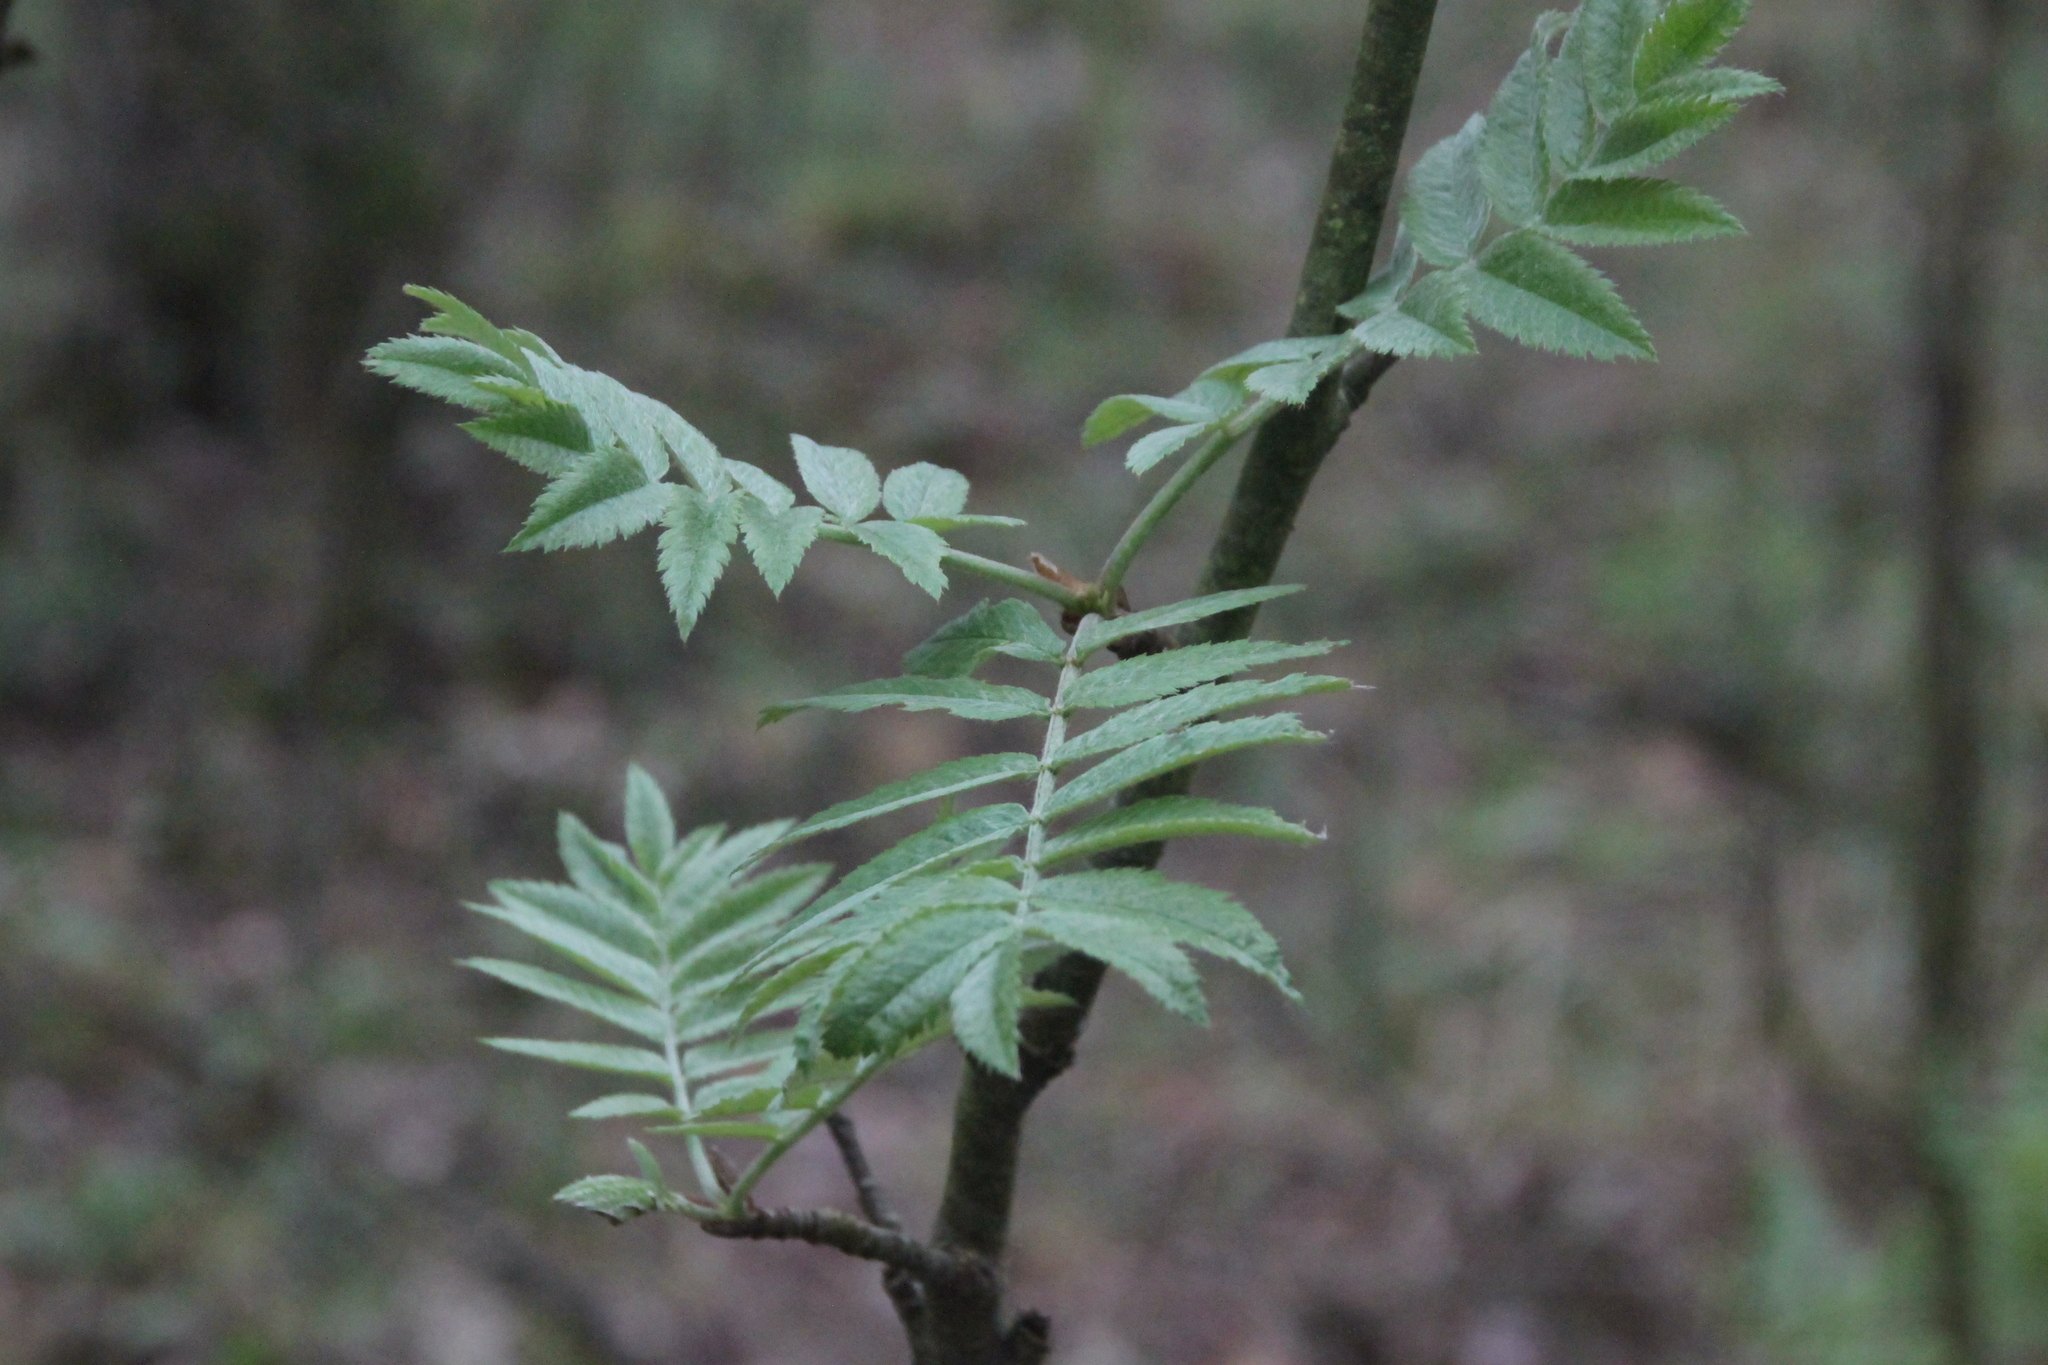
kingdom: Plantae
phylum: Tracheophyta
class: Magnoliopsida
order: Rosales
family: Rosaceae
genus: Sorbus
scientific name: Sorbus aucuparia
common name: Rowan
